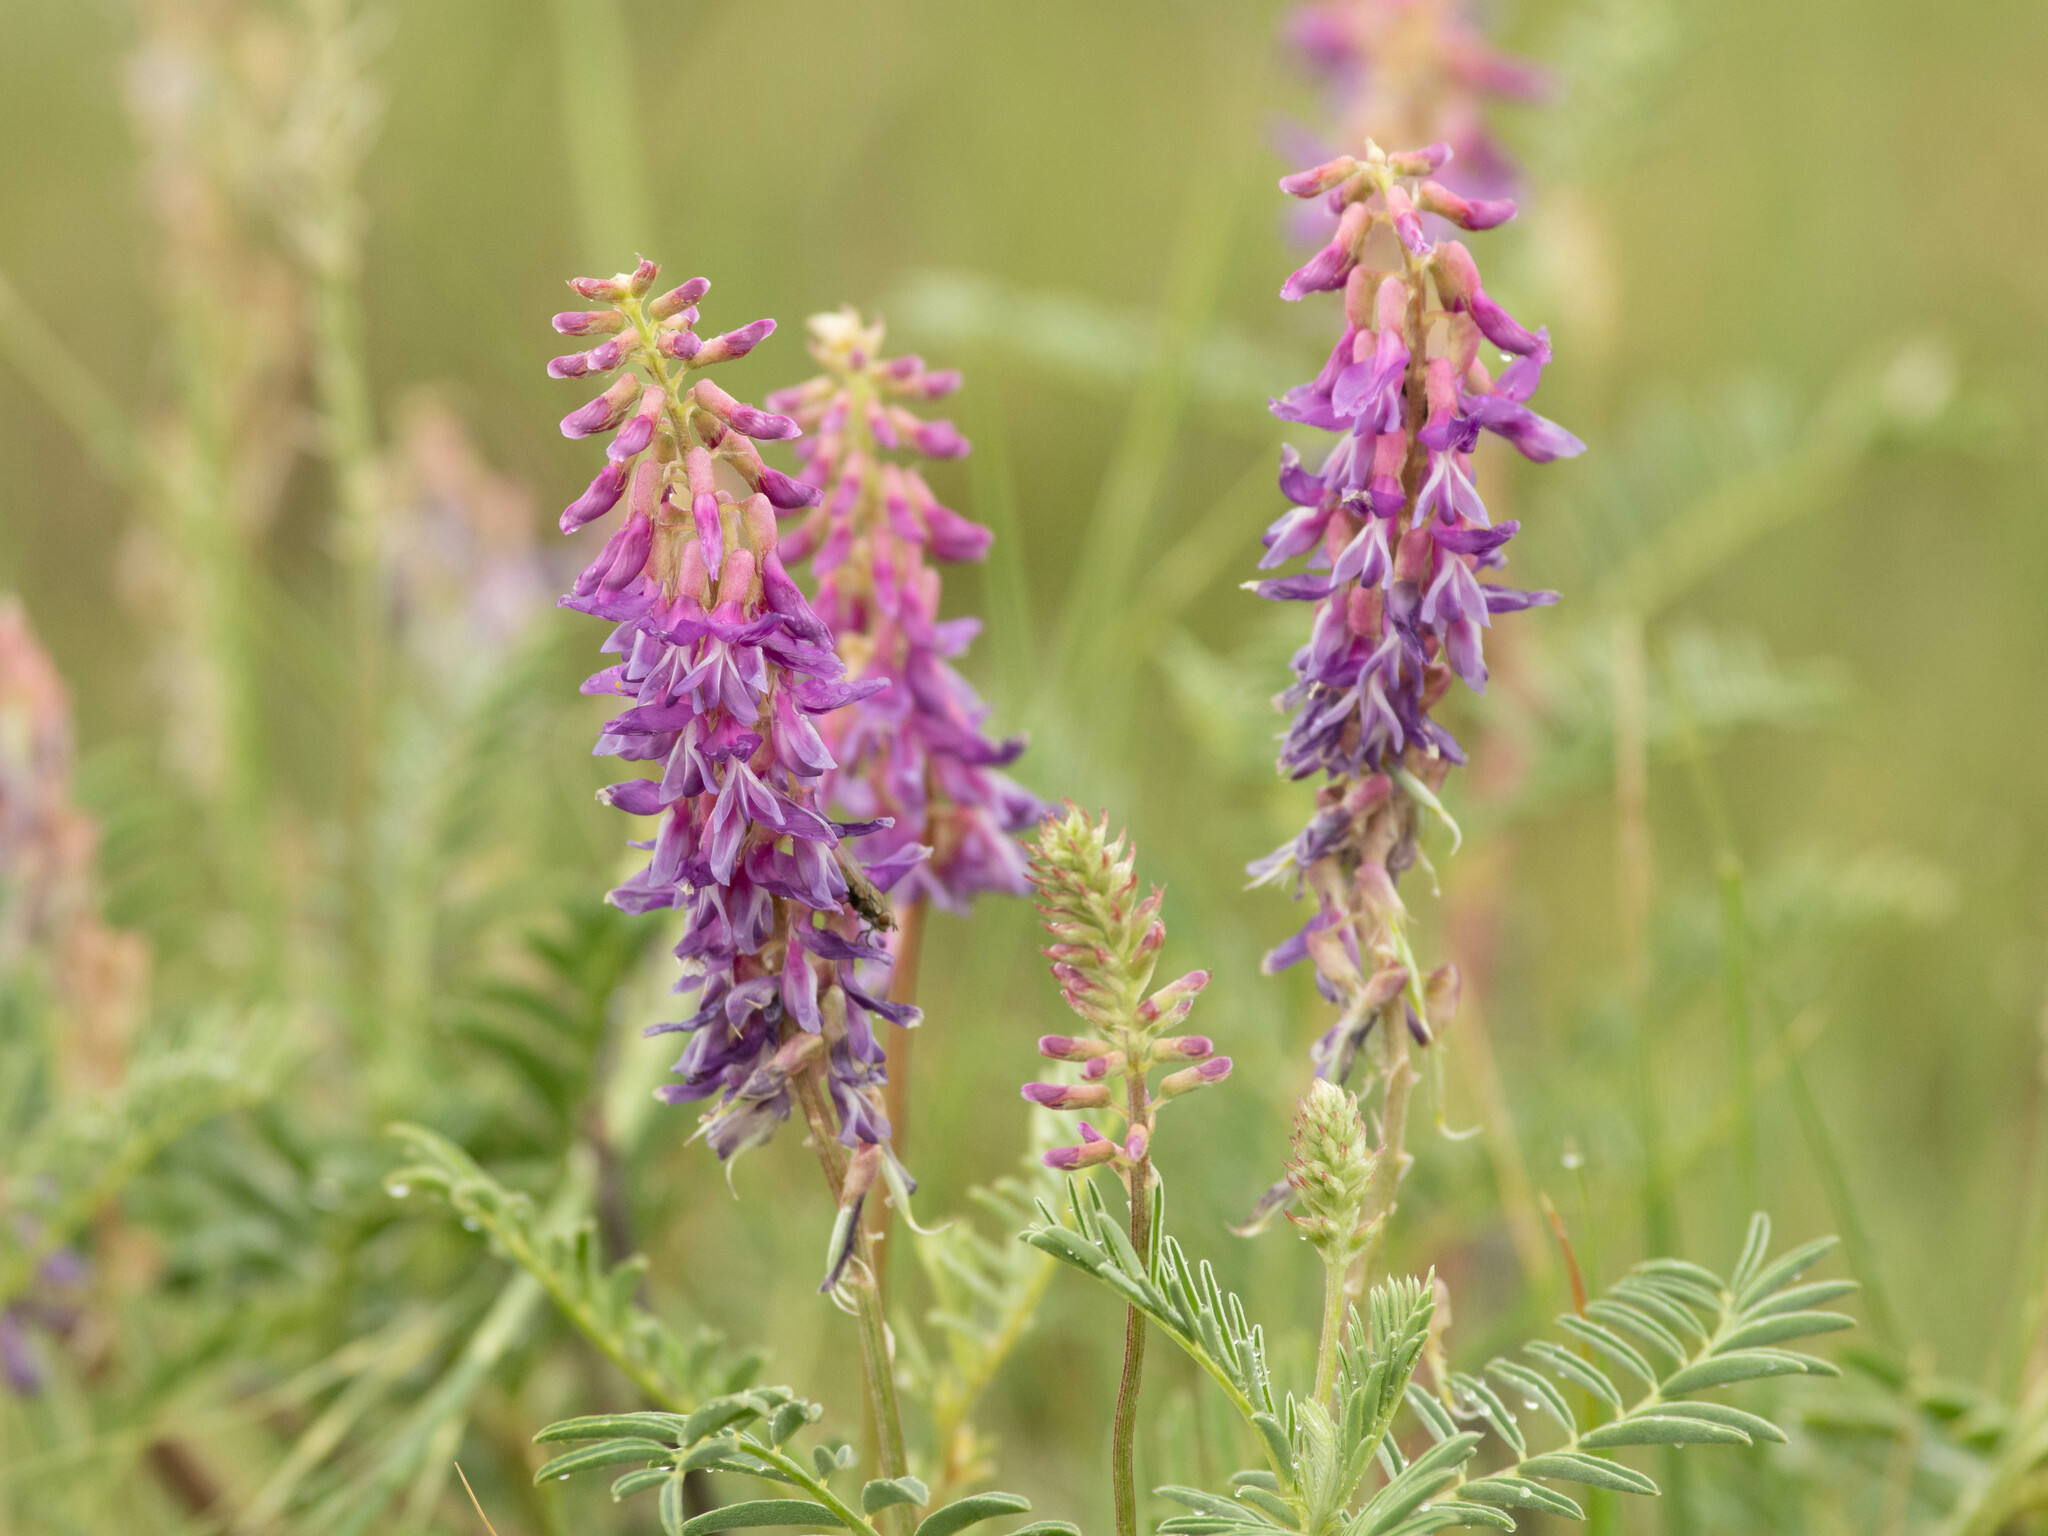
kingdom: Plantae
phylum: Tracheophyta
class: Magnoliopsida
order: Fabales
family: Fabaceae
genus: Astragalus
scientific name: Astragalus bisulcatus
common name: Two-groove milk-vetch
